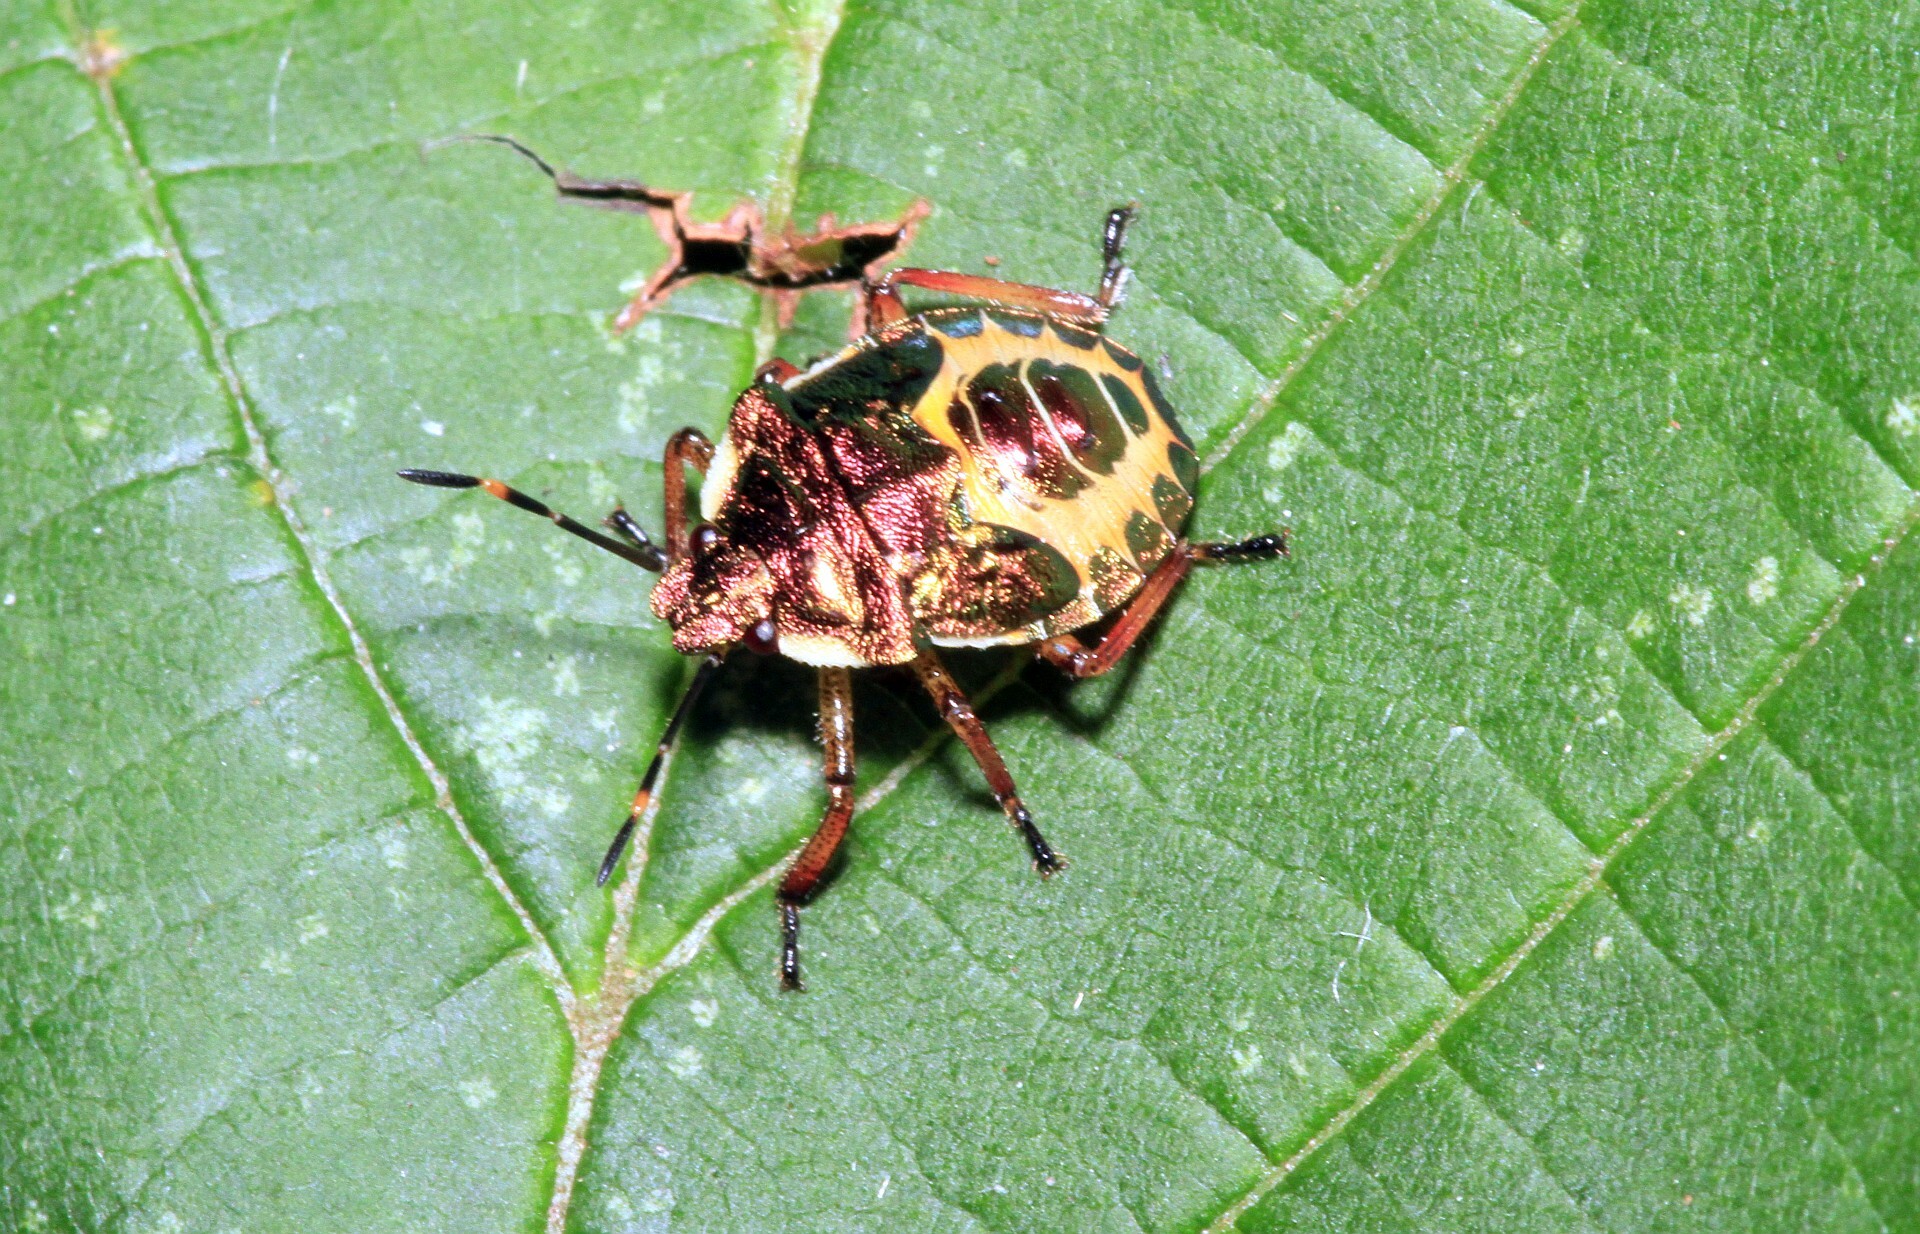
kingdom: Animalia
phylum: Arthropoda
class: Insecta
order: Hemiptera
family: Pentatomidae
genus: Troilus
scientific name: Troilus luridus
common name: Bronze shieldbug
